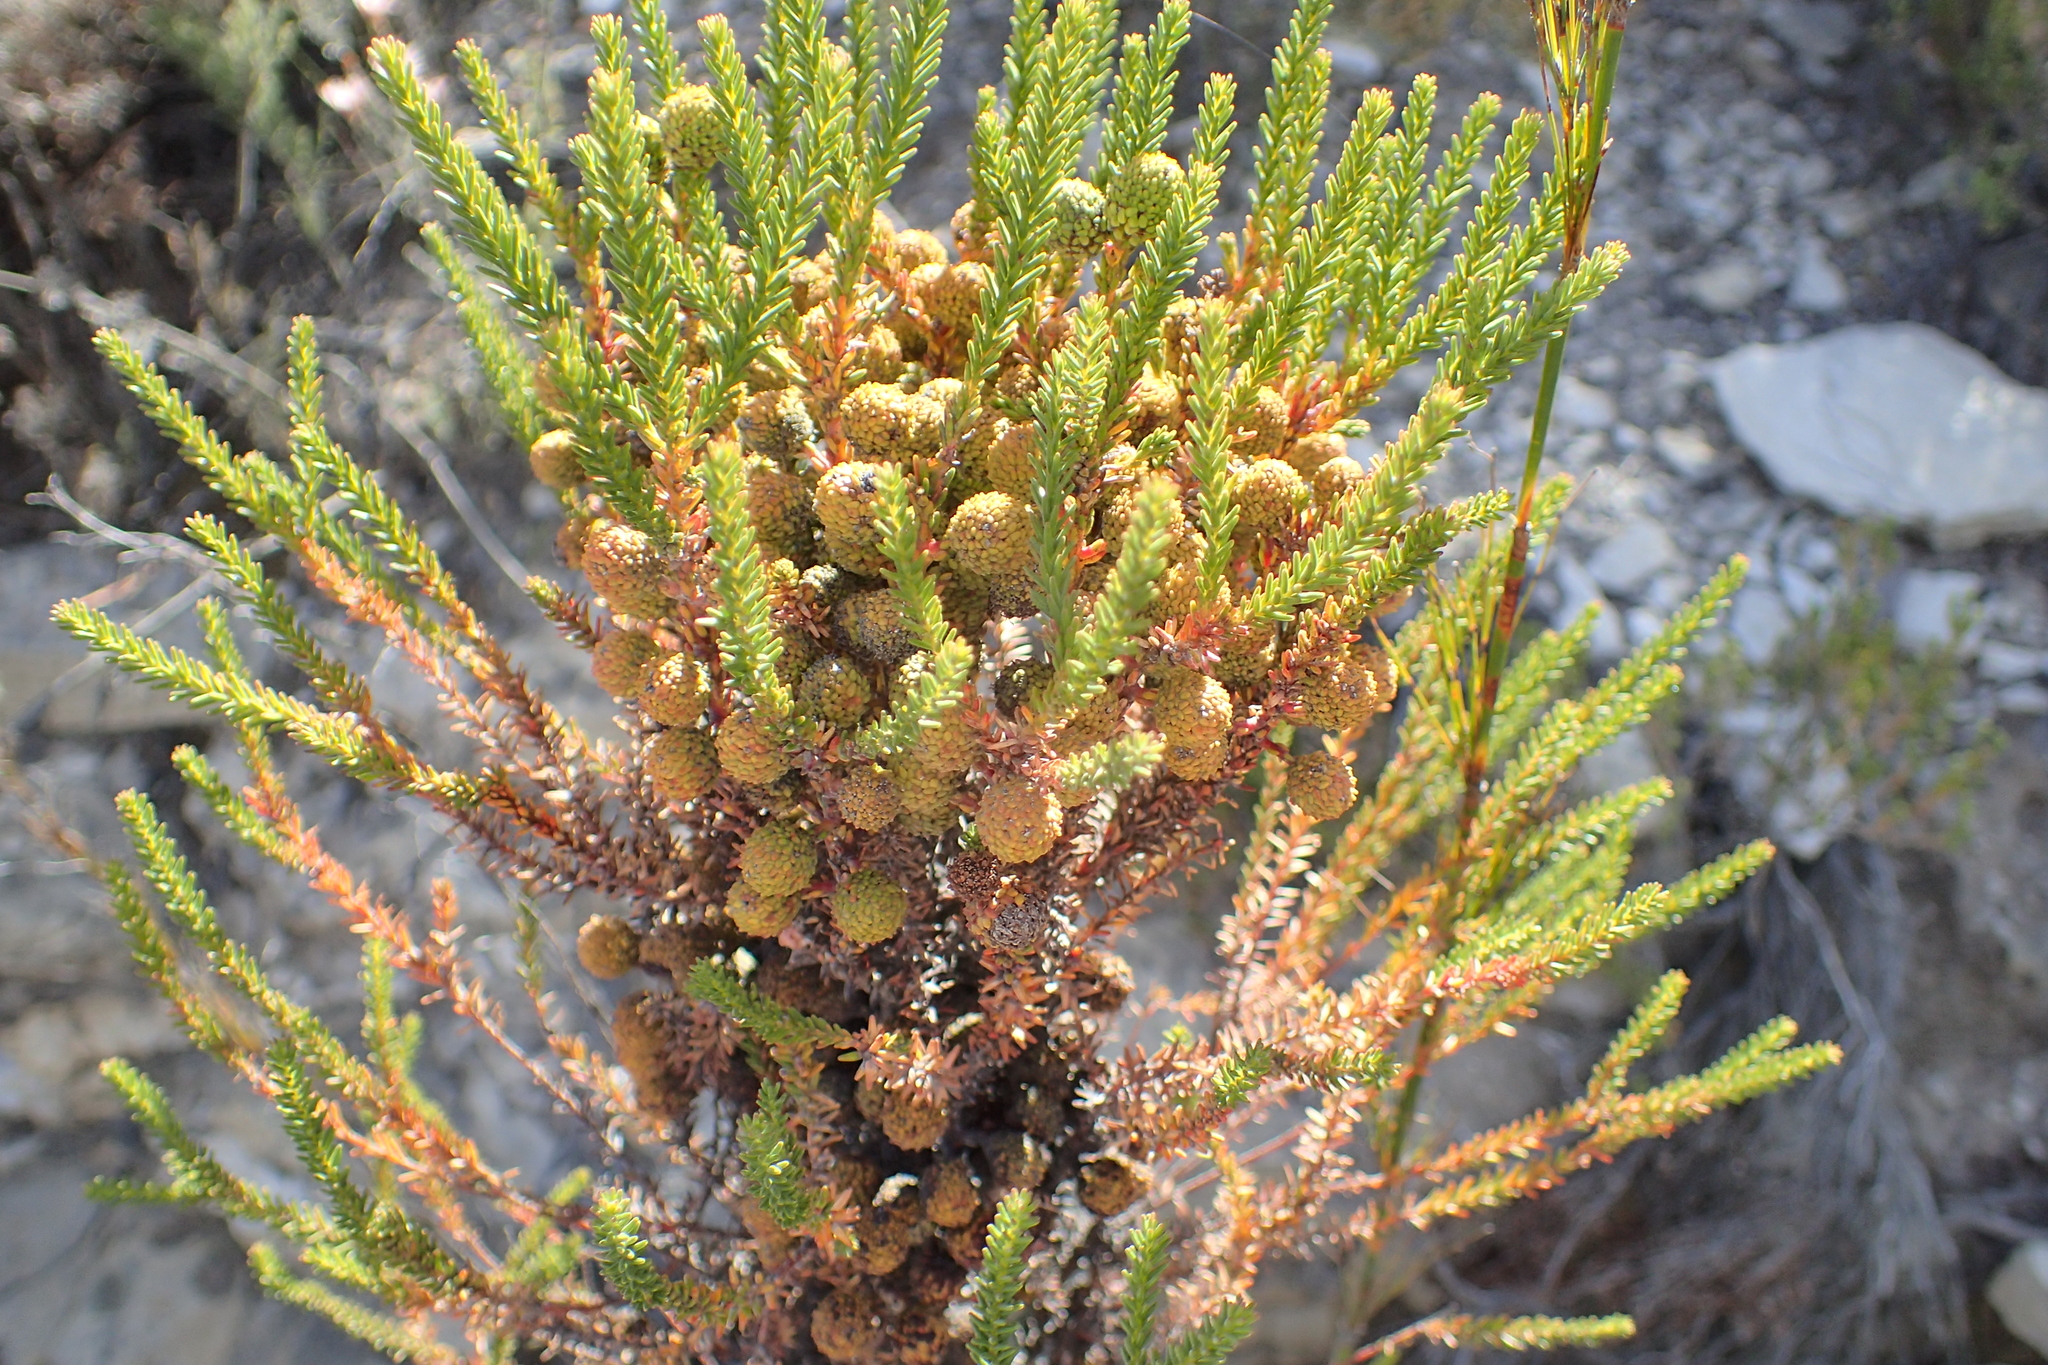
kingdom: Plantae
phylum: Tracheophyta
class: Magnoliopsida
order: Bruniales
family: Bruniaceae
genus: Berzelia
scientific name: Berzelia intermedia
